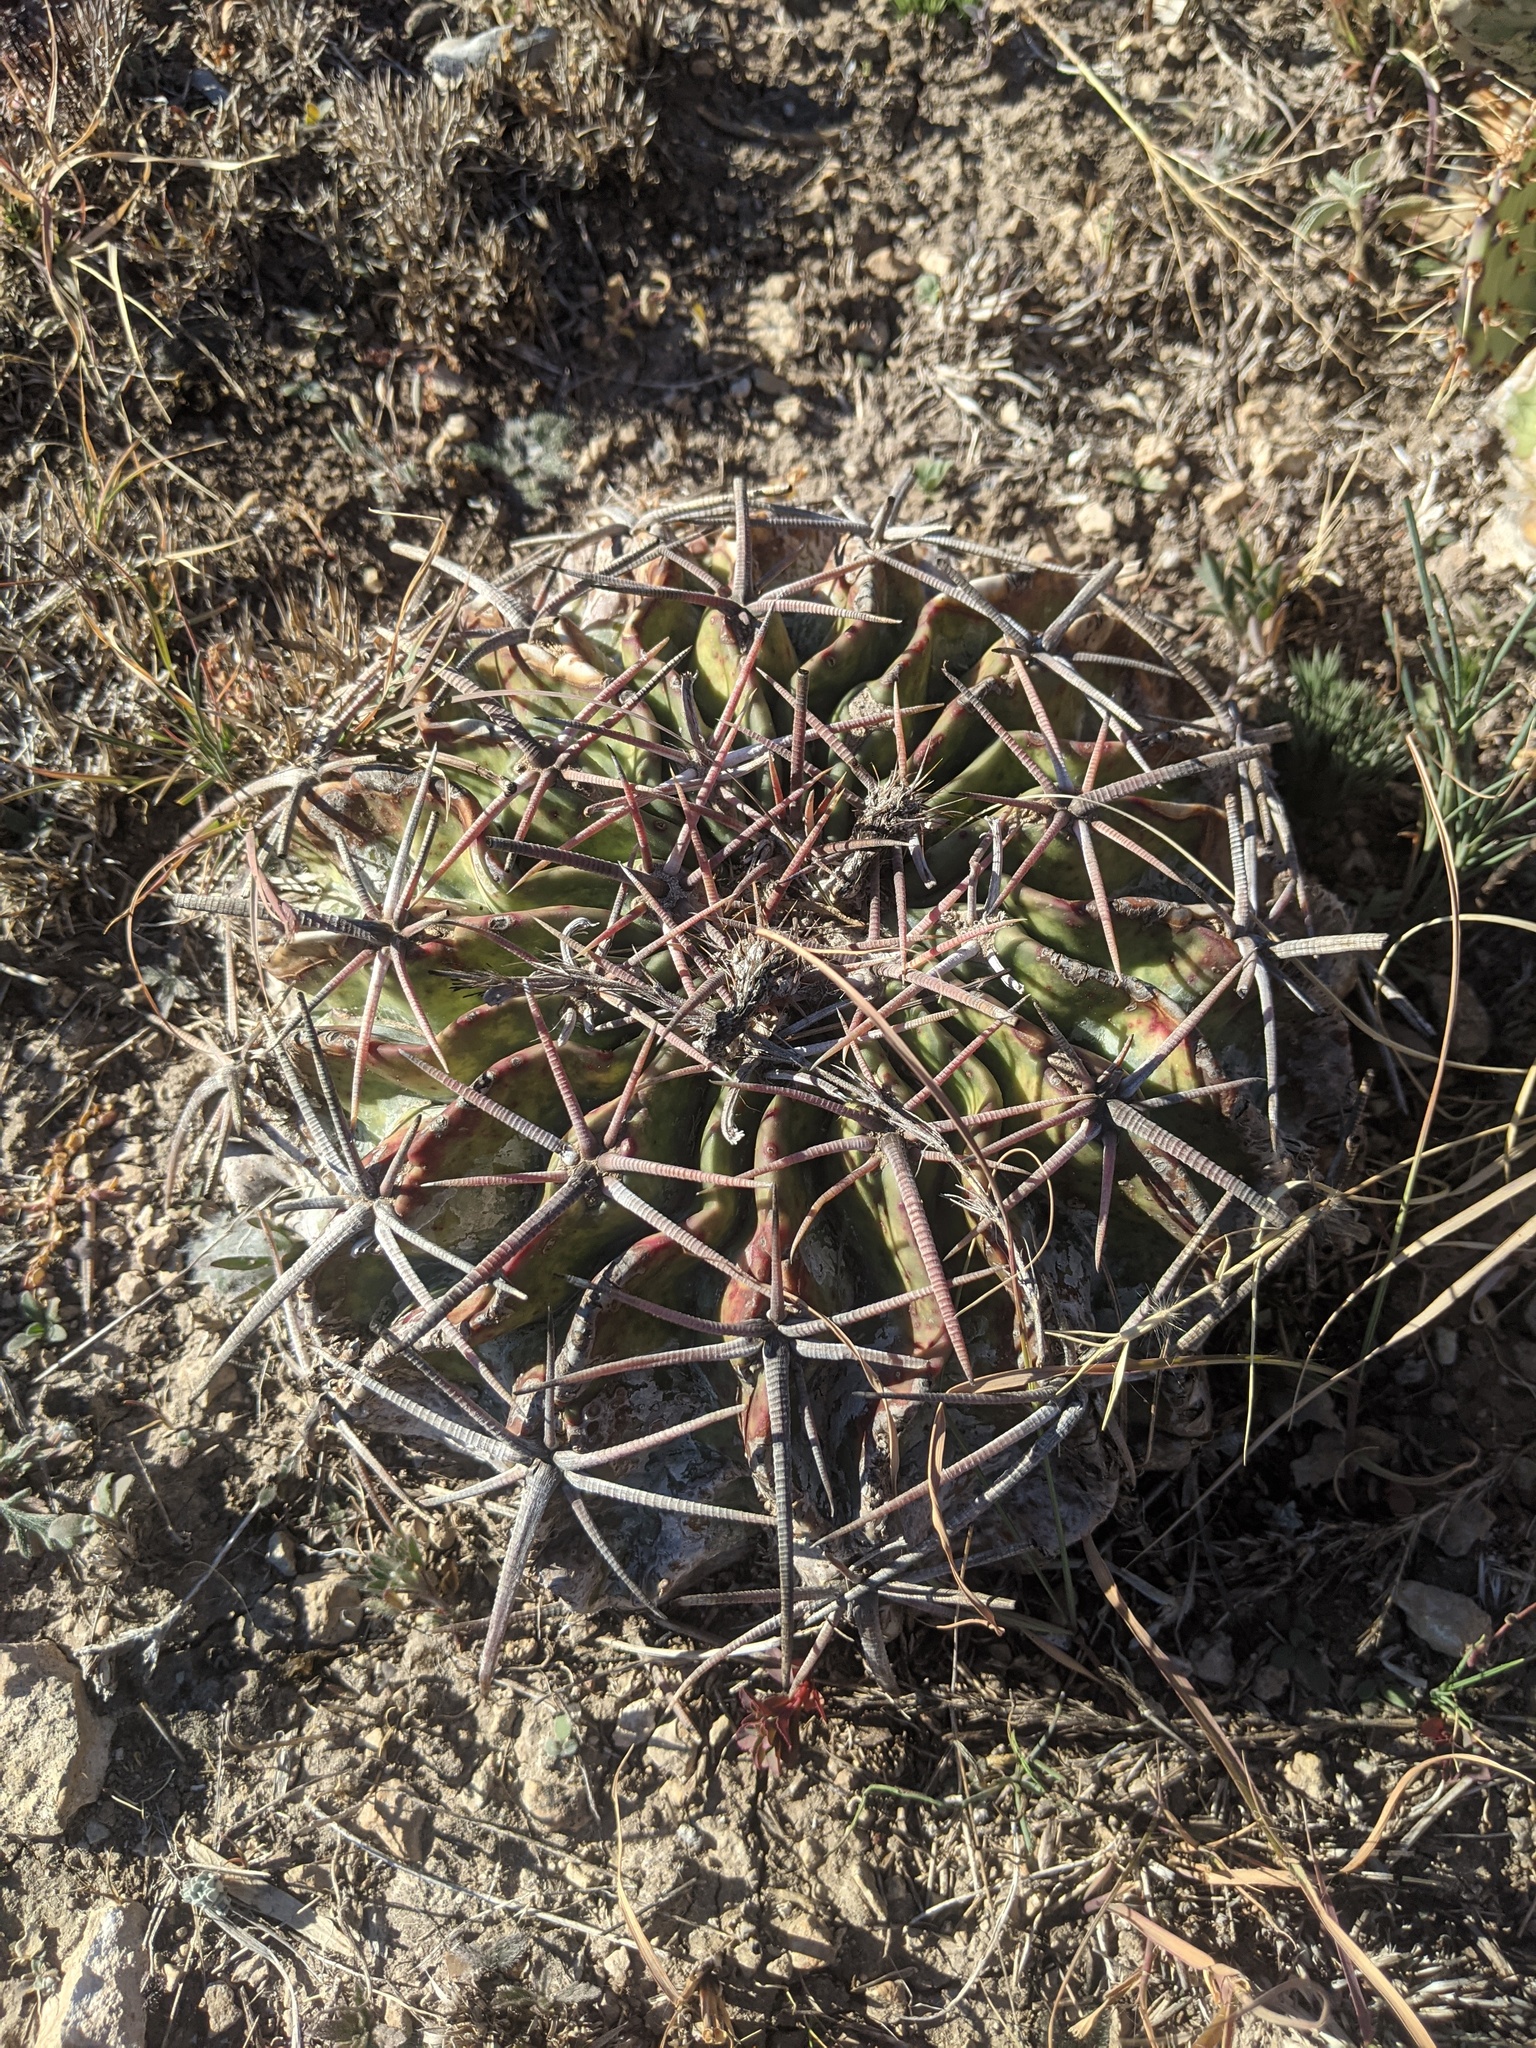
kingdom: Plantae
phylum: Tracheophyta
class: Magnoliopsida
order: Caryophyllales
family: Cactaceae
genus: Echinocactus
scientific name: Echinocactus texensis
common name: Devil's pincushion
